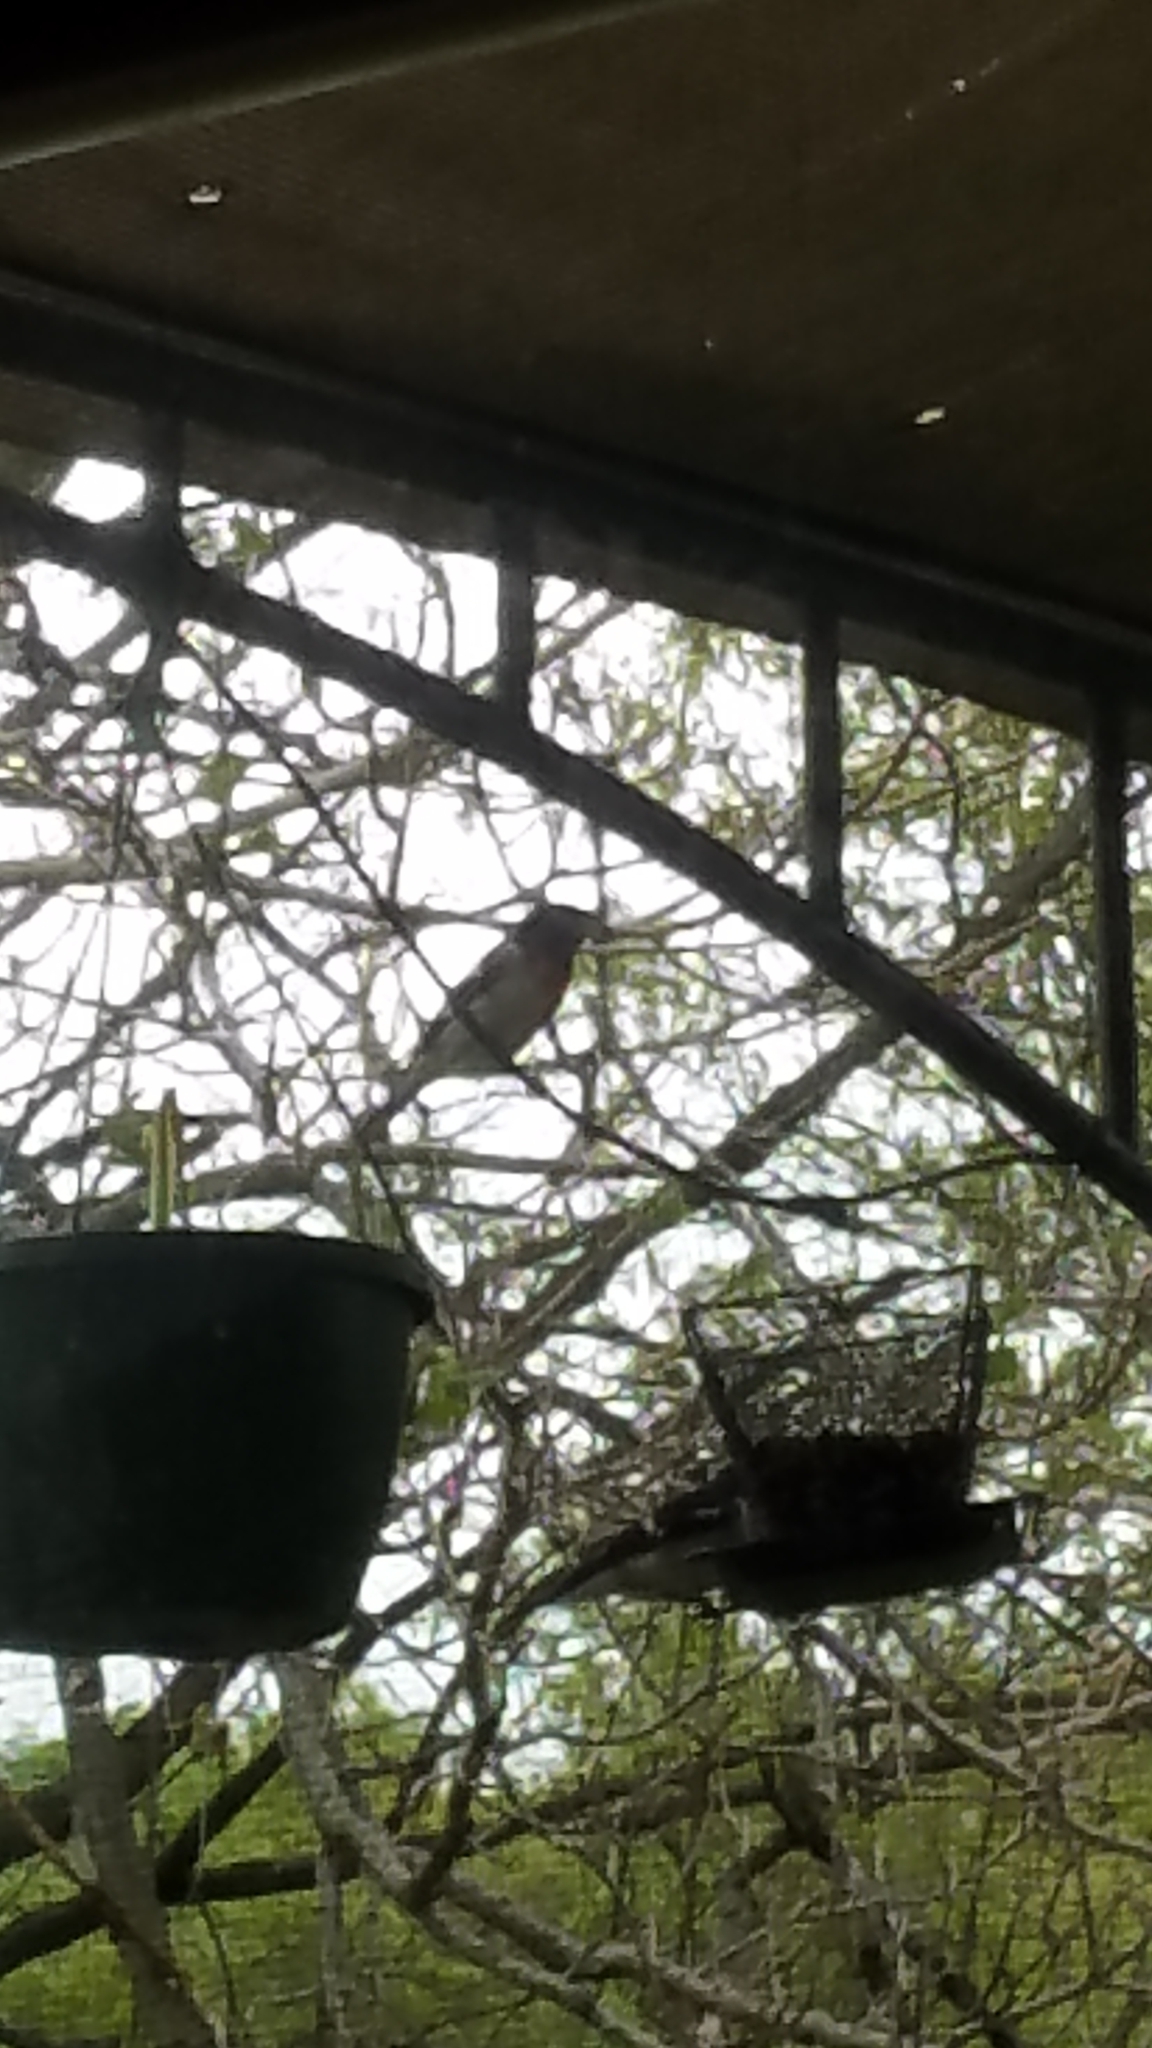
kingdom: Animalia
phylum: Chordata
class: Aves
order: Passeriformes
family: Cardinalidae
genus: Pheucticus
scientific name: Pheucticus ludovicianus
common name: Rose-breasted grosbeak
